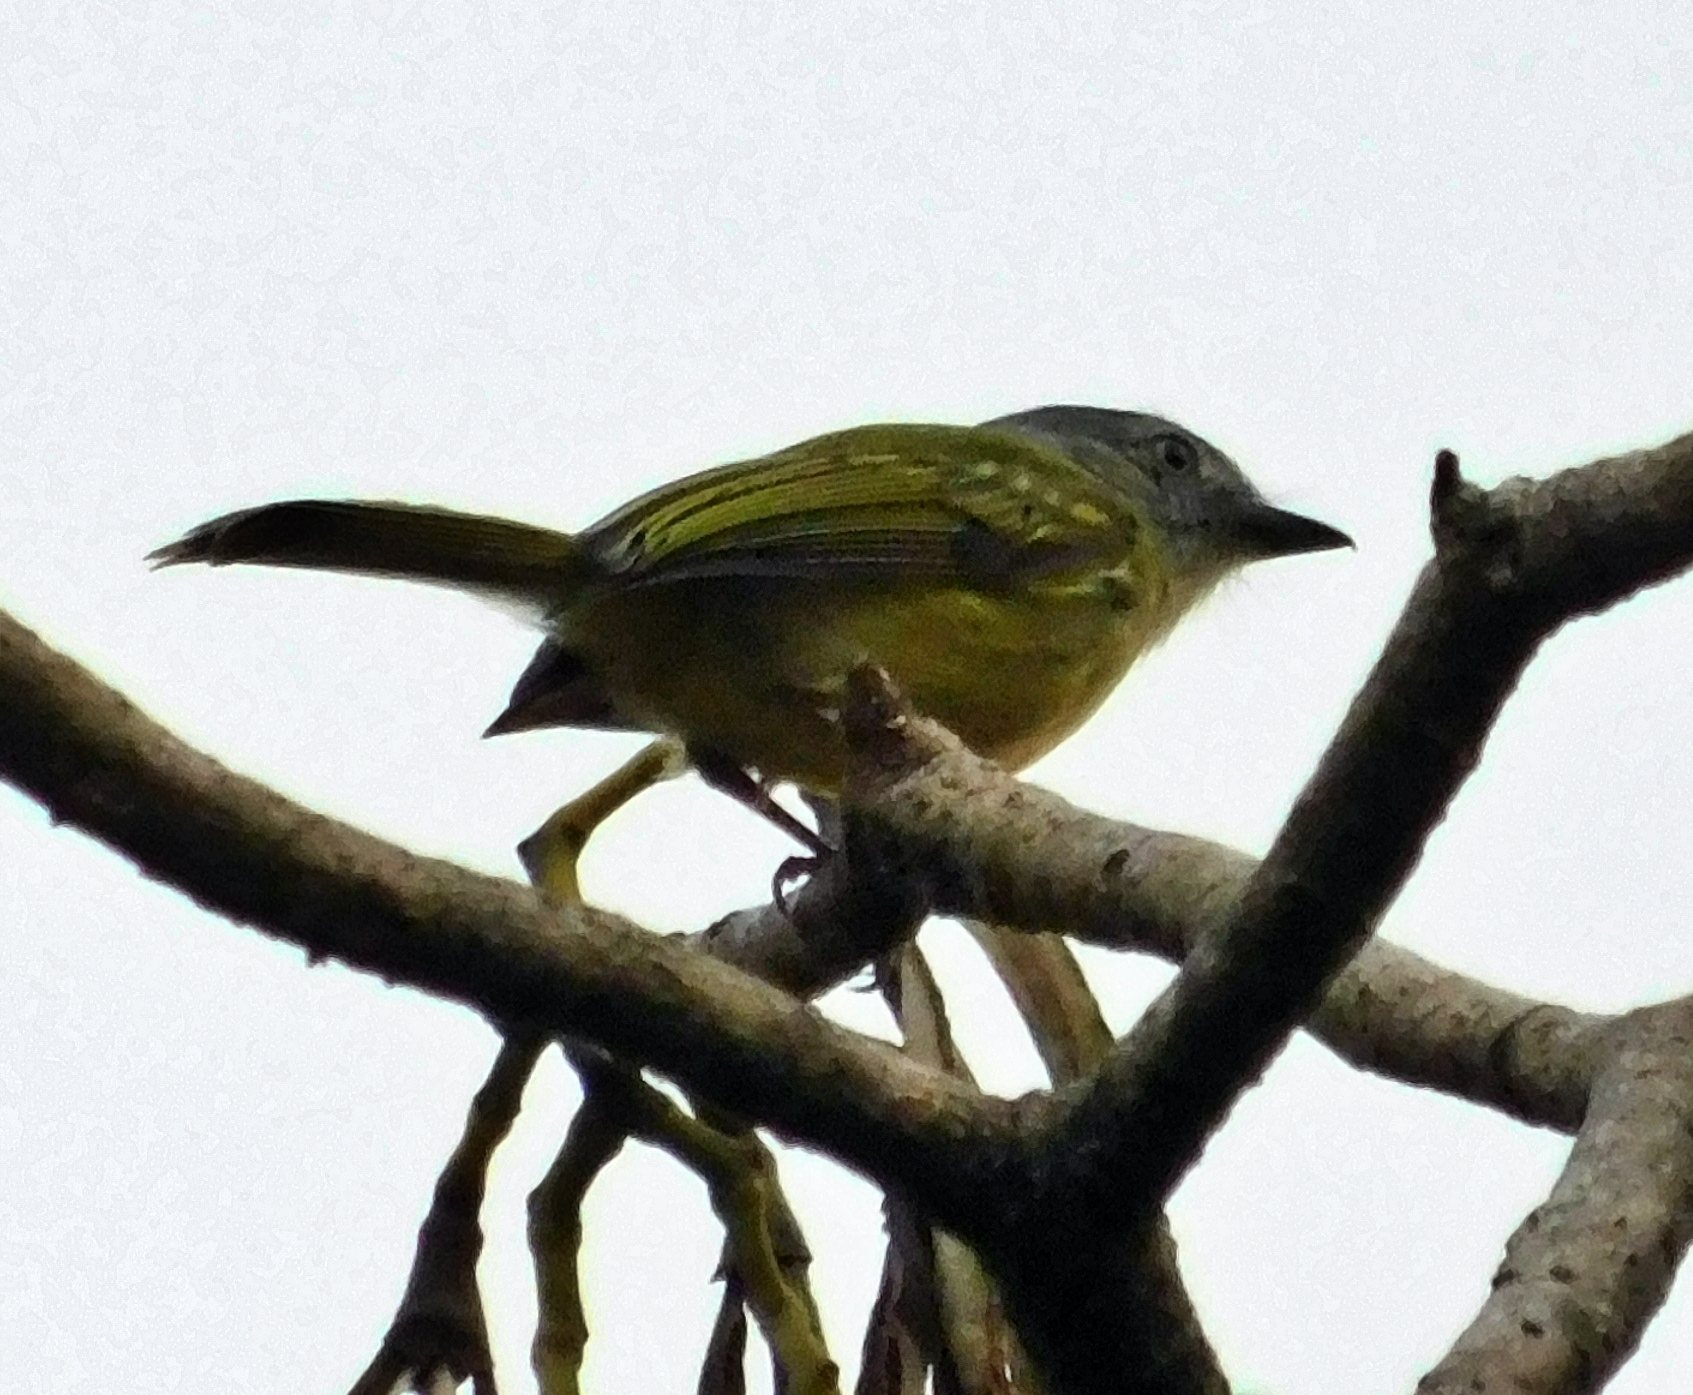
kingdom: Animalia
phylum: Chordata
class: Aves
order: Passeriformes
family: Tyrannidae
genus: Tolmomyias
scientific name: Tolmomyias sulphurescens
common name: Yellow-olive flycatcher
